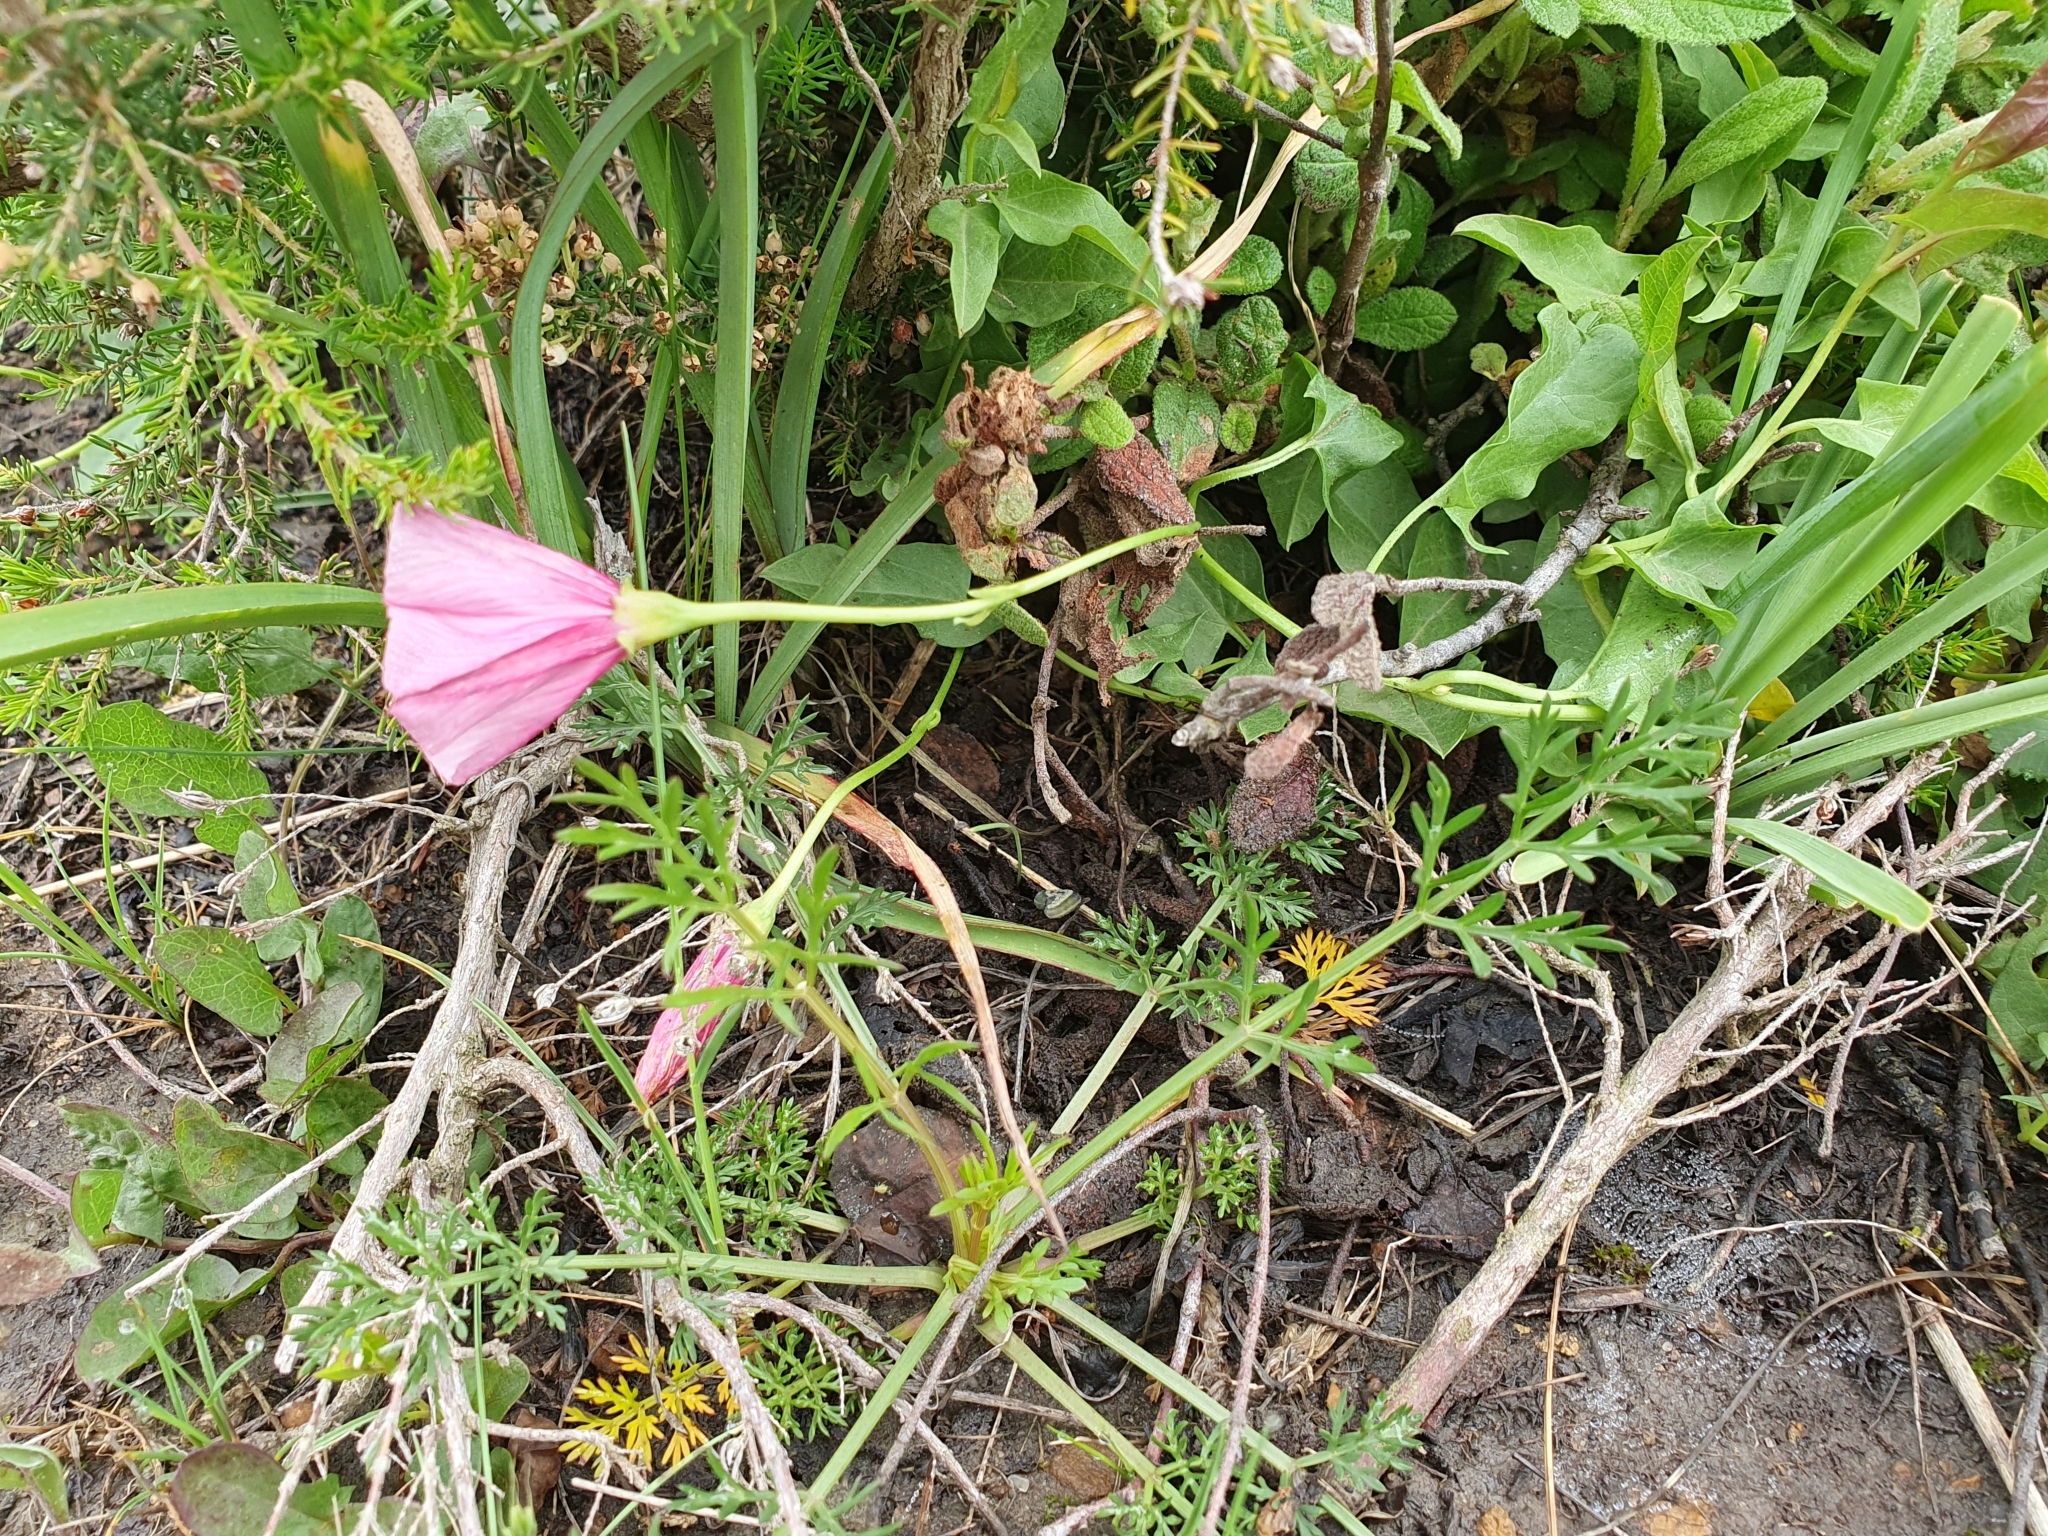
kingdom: Plantae
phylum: Tracheophyta
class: Magnoliopsida
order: Solanales
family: Convolvulaceae
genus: Convolvulus
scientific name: Convolvulus durandoi
